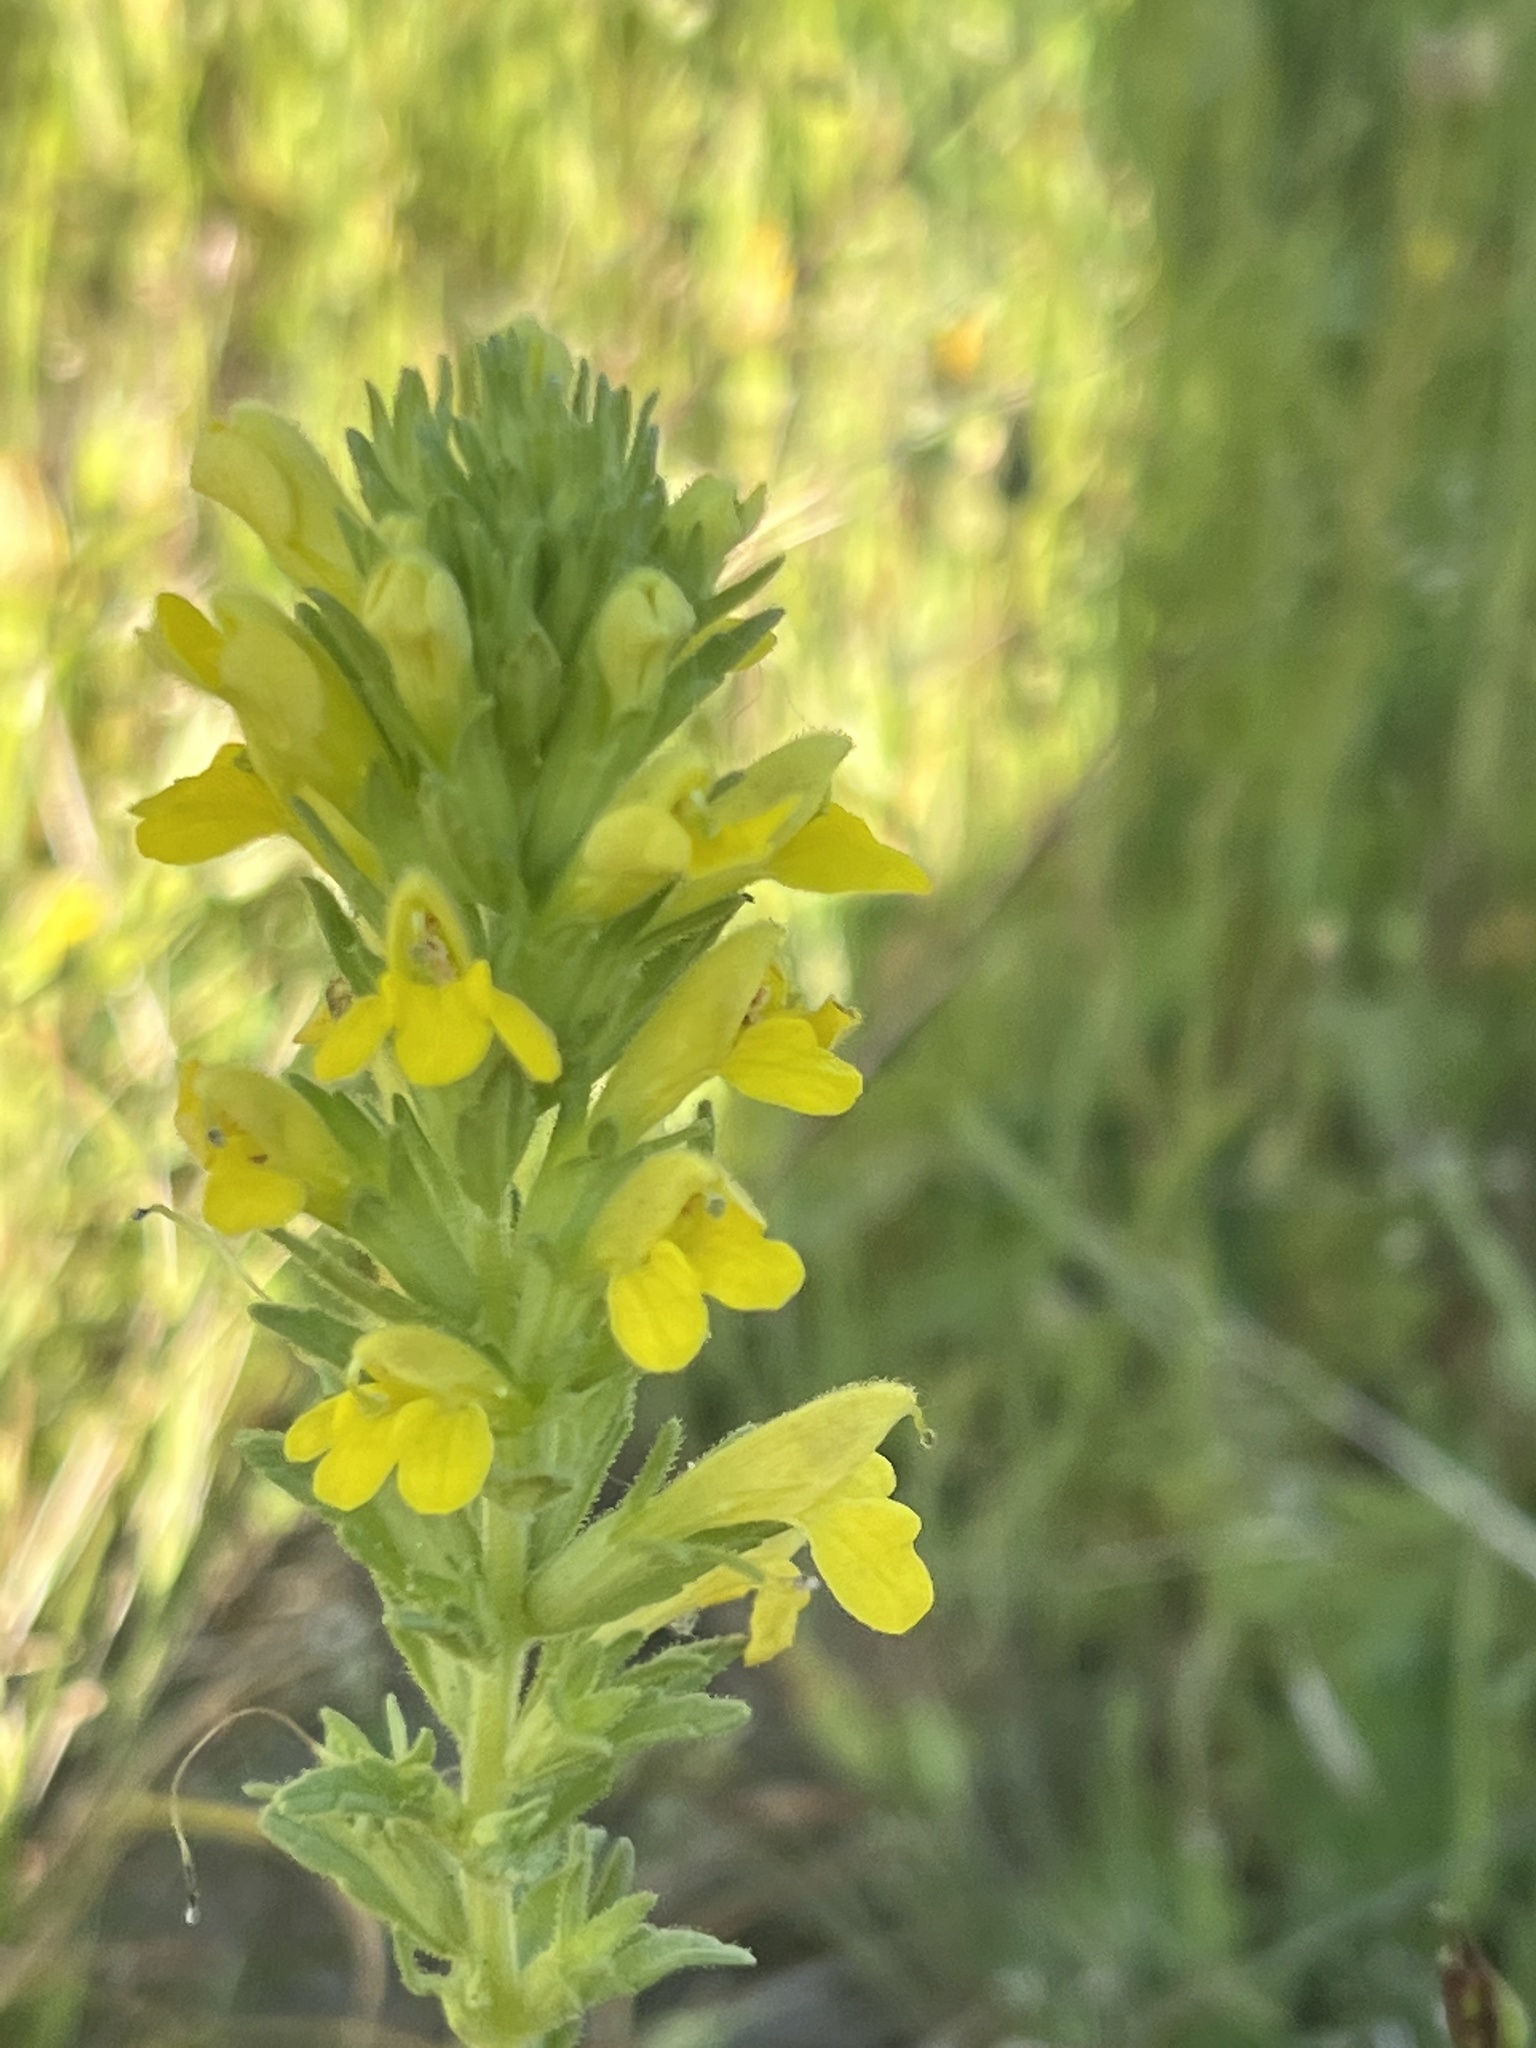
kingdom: Plantae
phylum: Tracheophyta
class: Magnoliopsida
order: Lamiales
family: Orobanchaceae
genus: Bellardia
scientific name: Bellardia viscosa
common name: Sticky parentucellia
